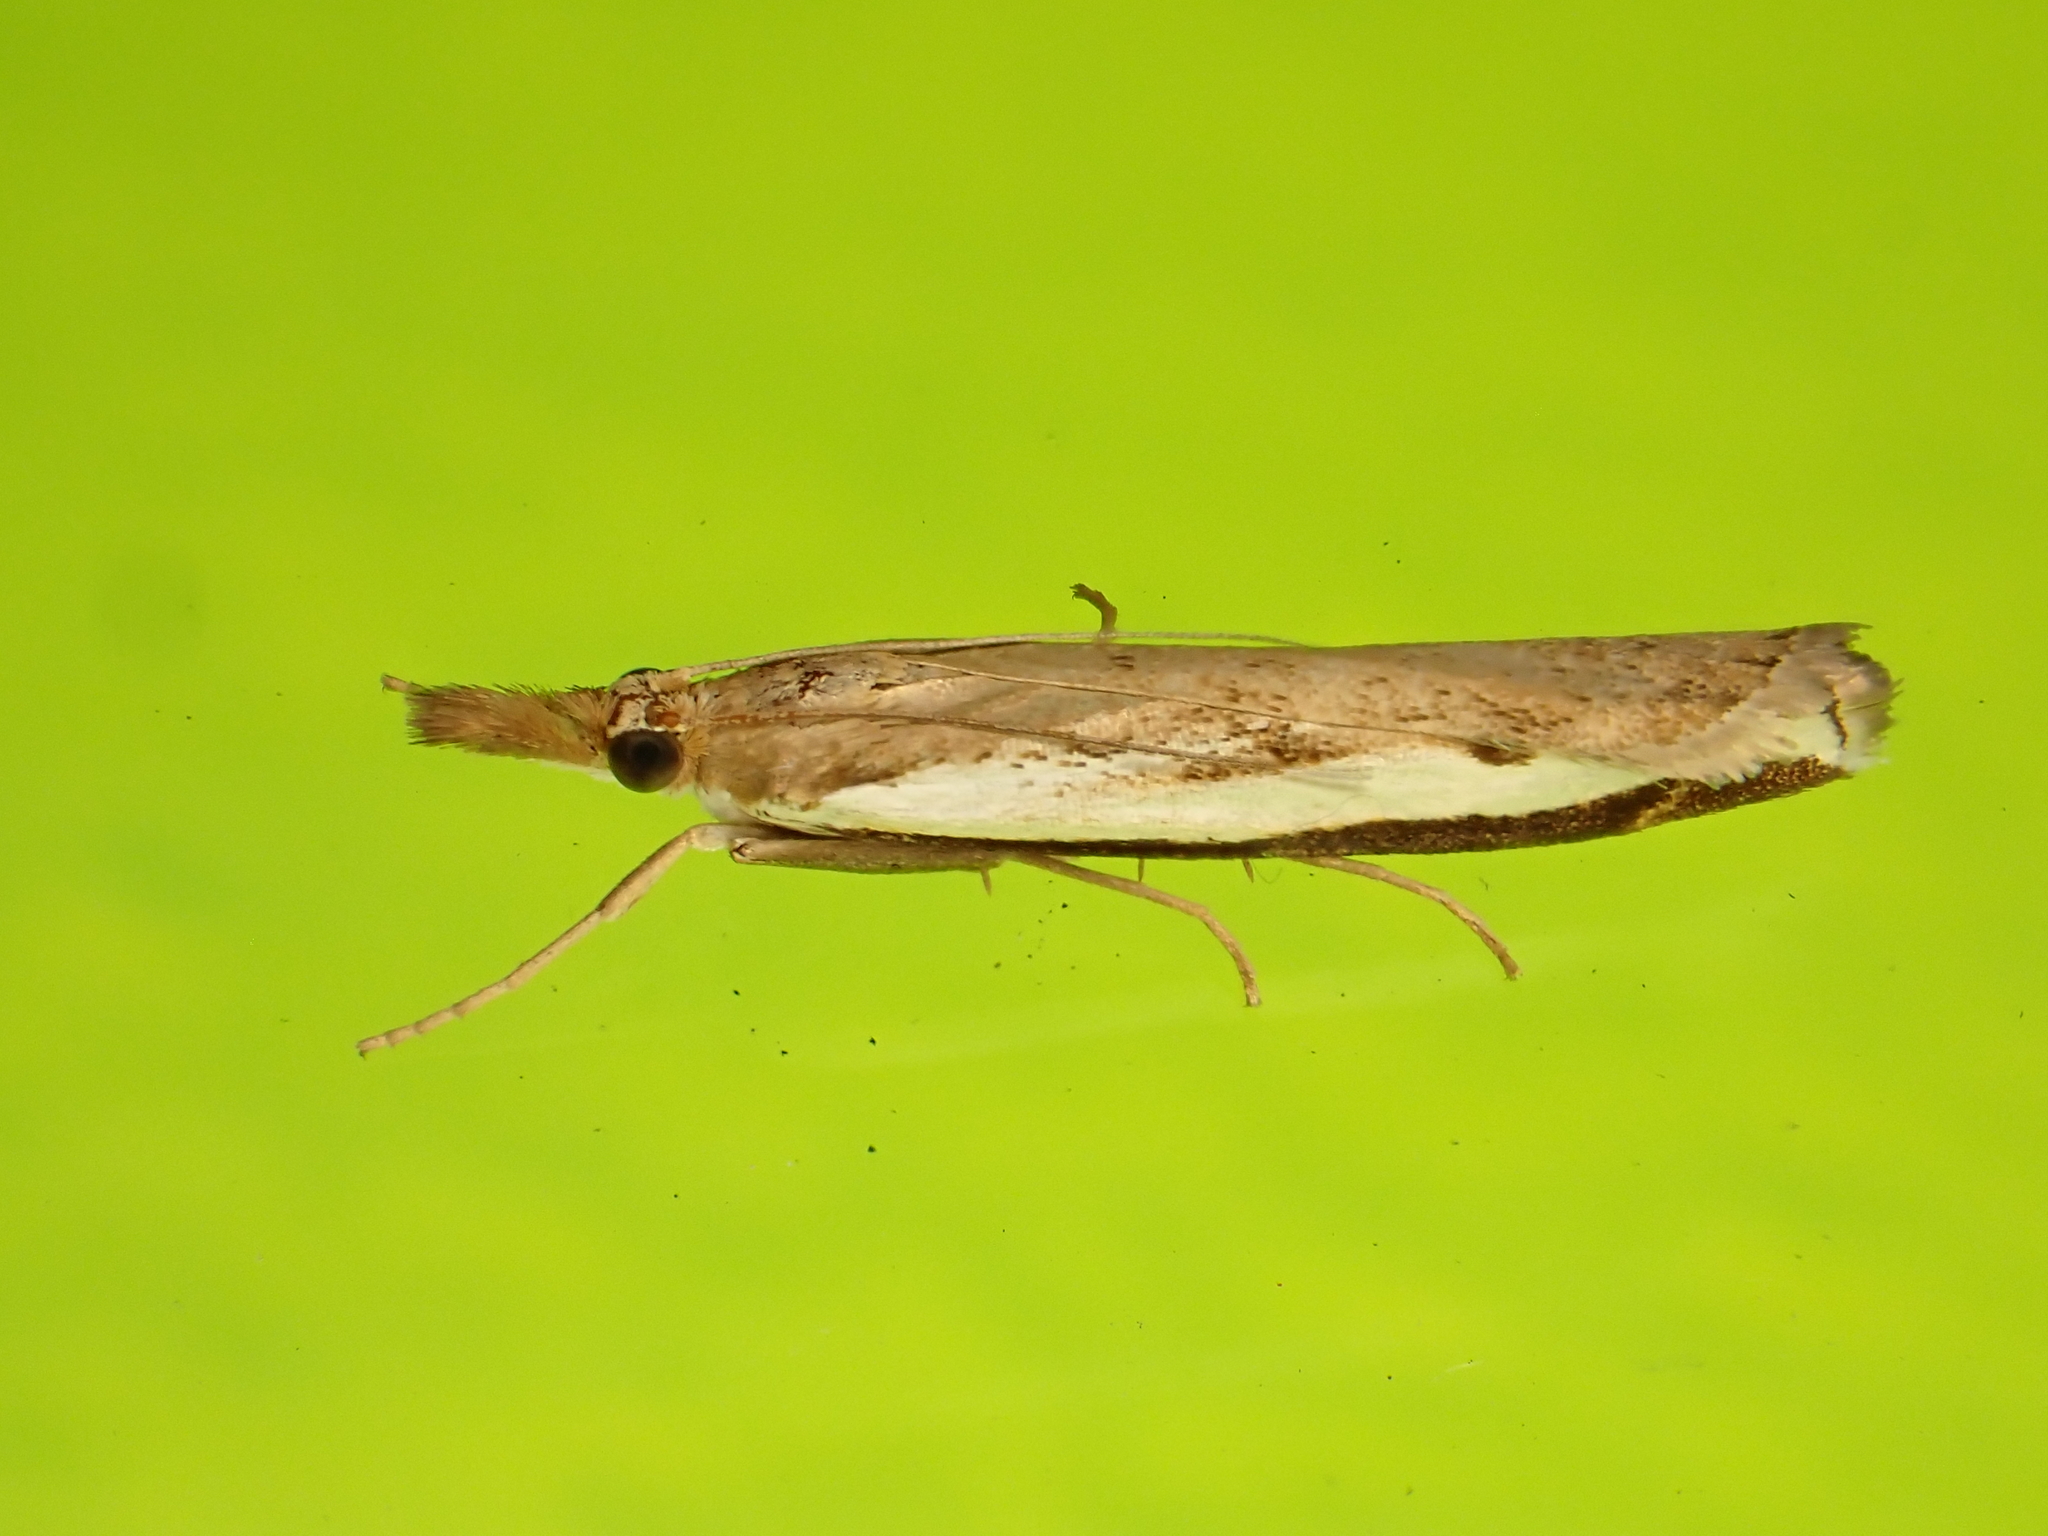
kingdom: Animalia
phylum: Arthropoda
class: Insecta
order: Lepidoptera
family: Crambidae
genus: Orocrambus
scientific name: Orocrambus flexuosellus
